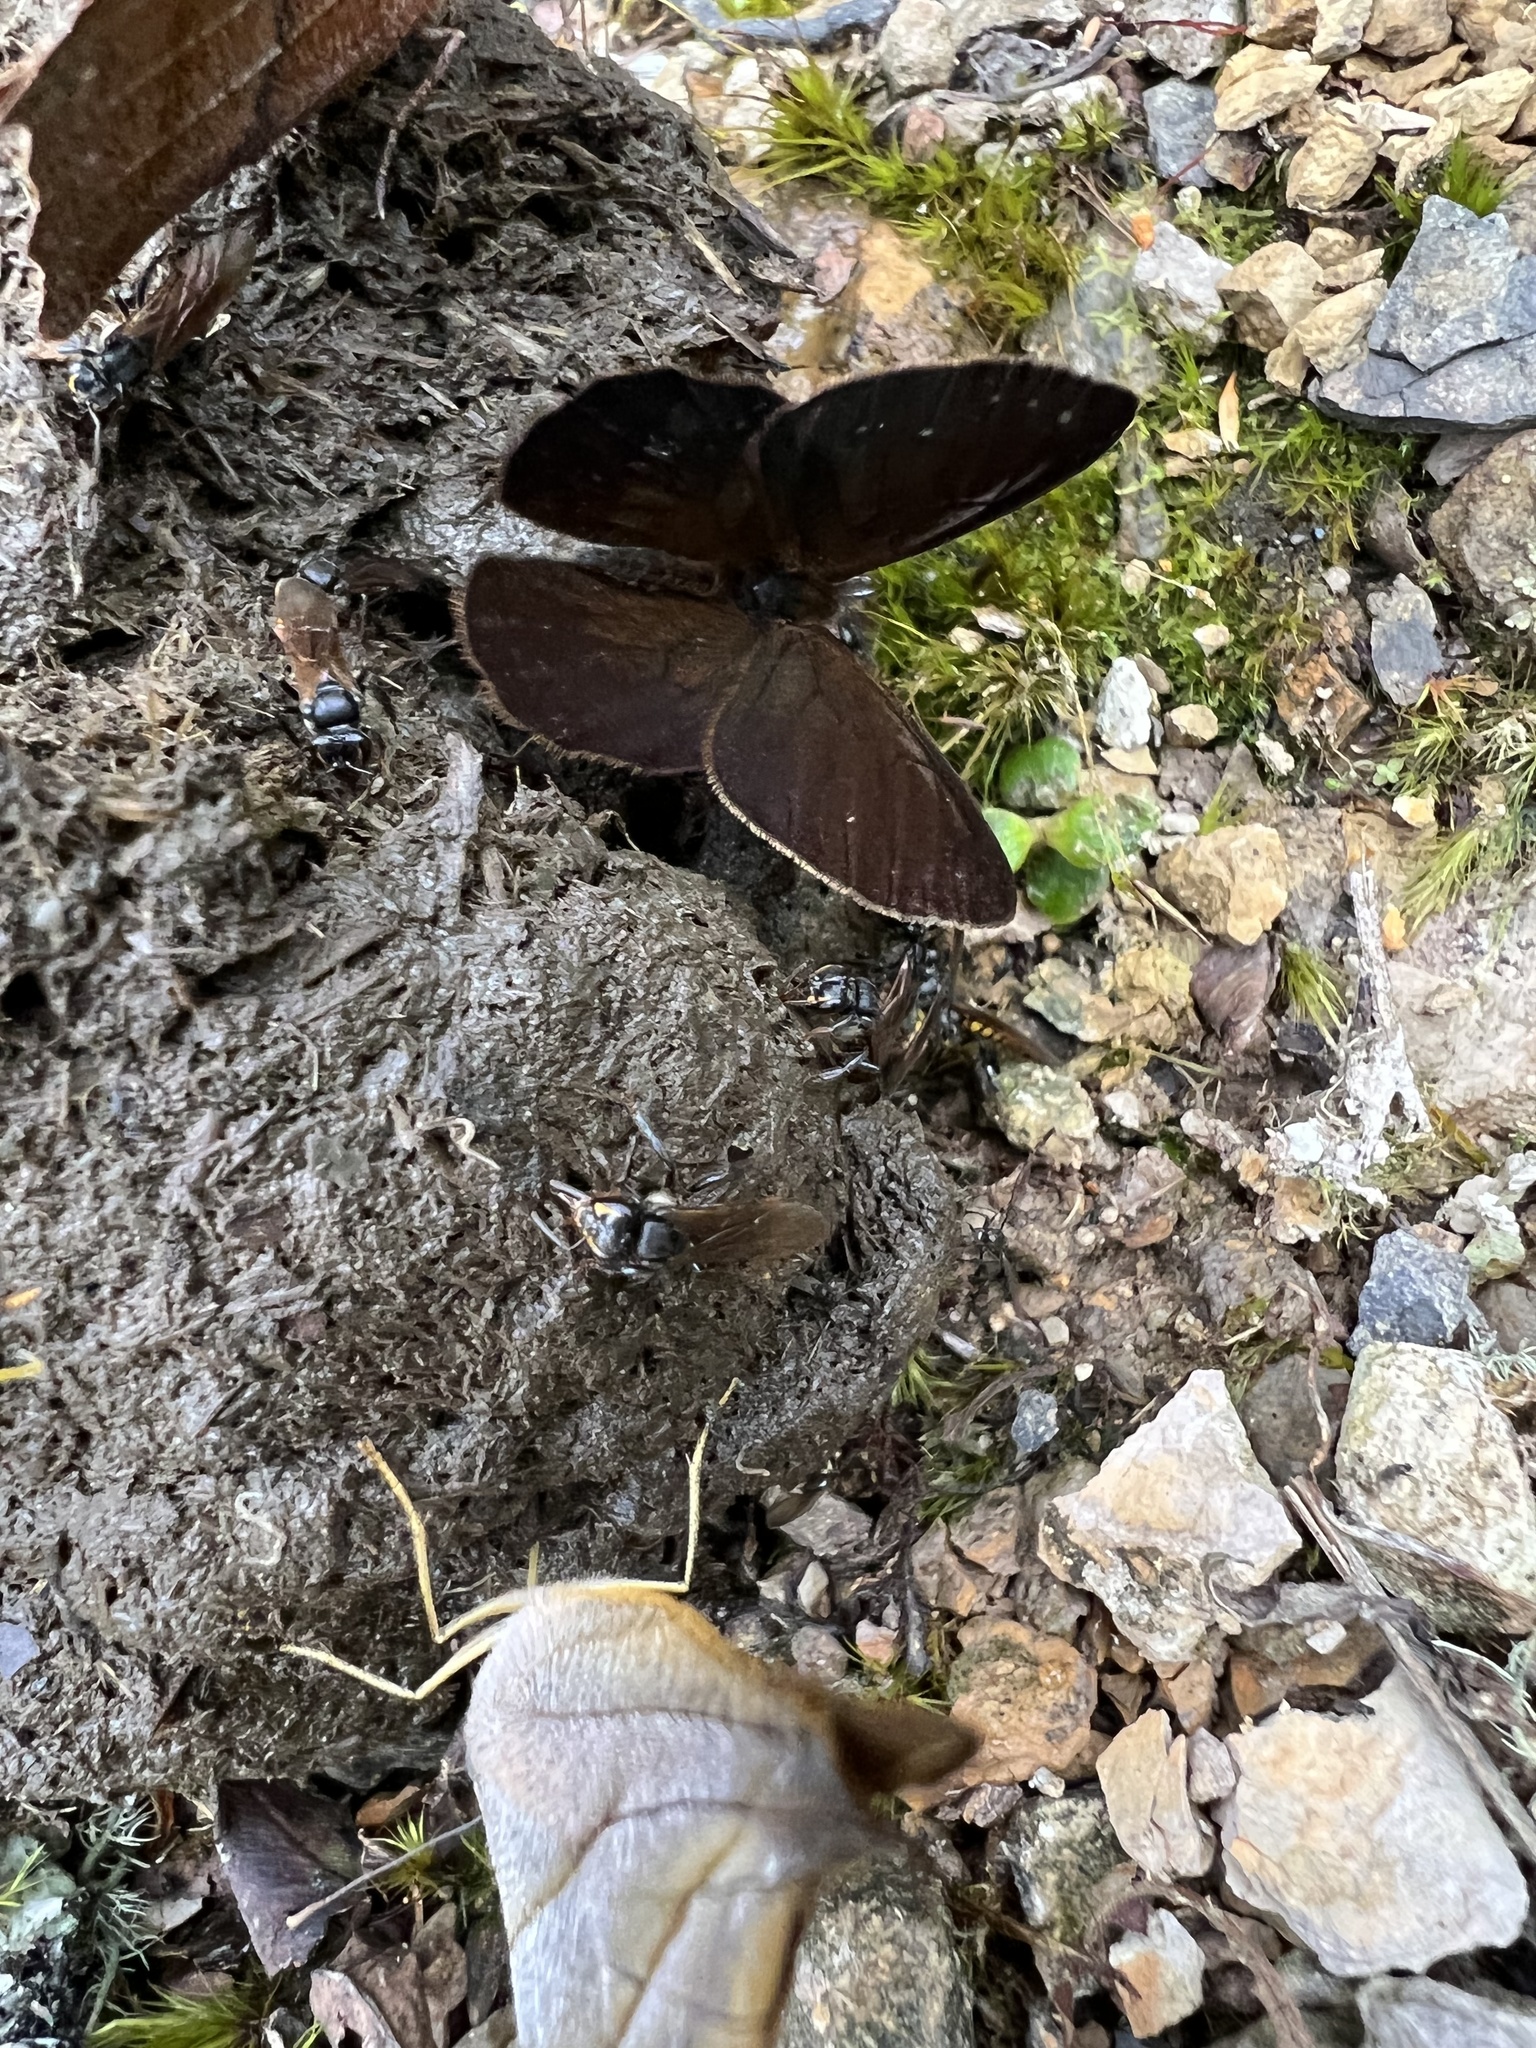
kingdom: Animalia
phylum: Arthropoda
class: Insecta
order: Lepidoptera
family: Nymphalidae
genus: Lymanopoda
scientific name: Lymanopoda labda
